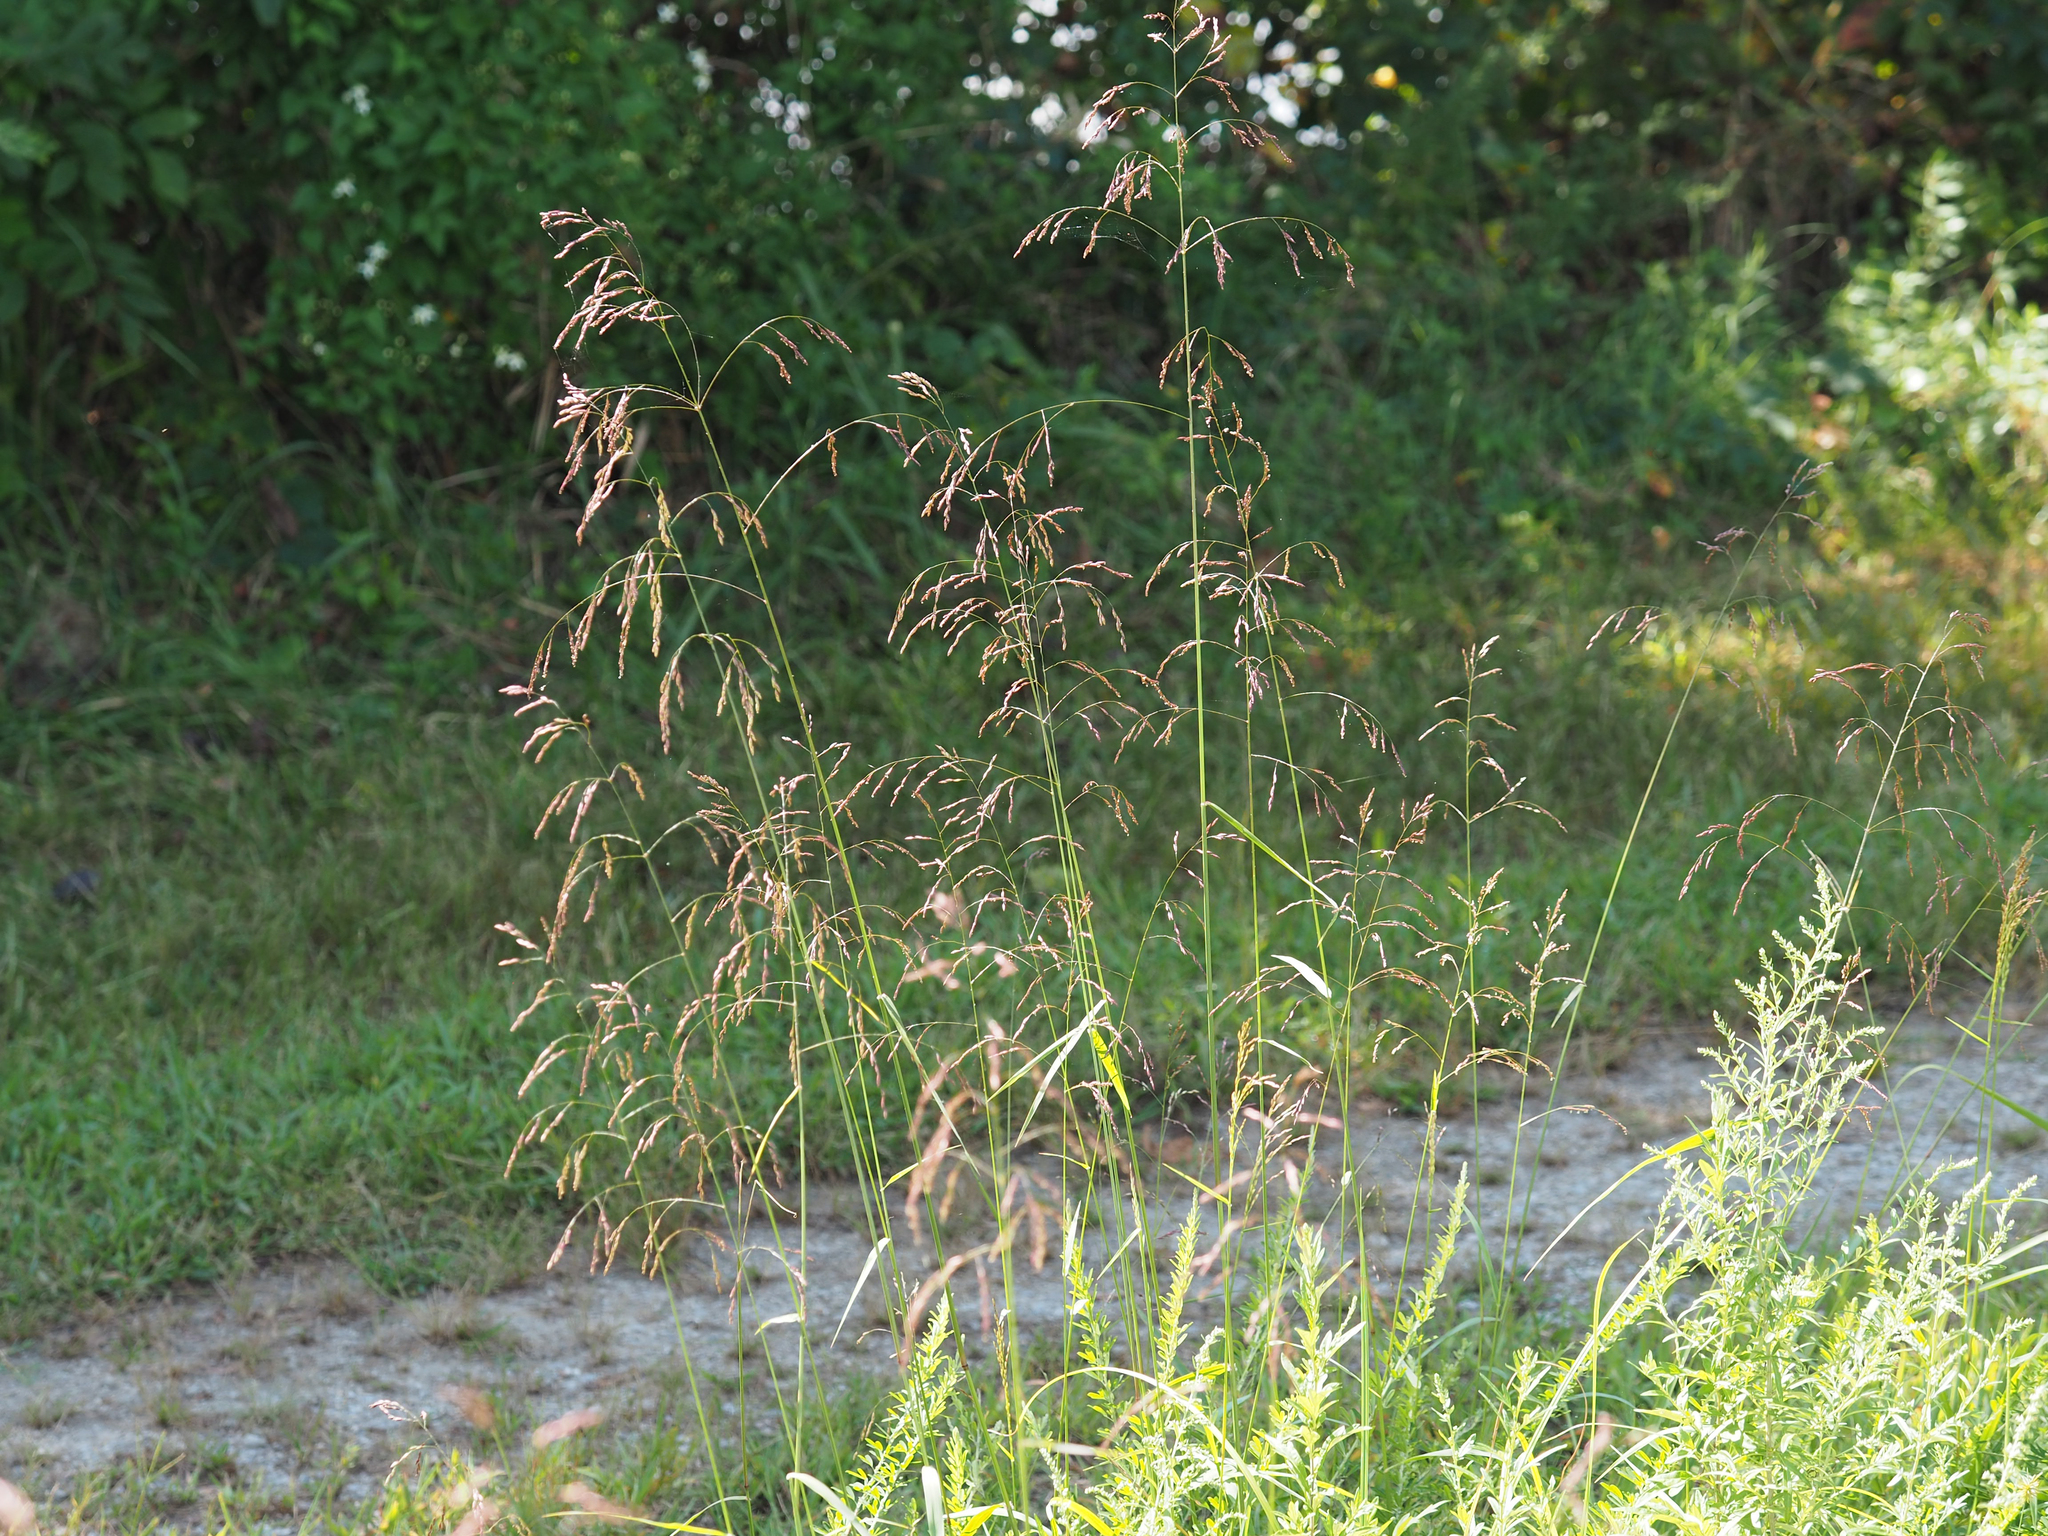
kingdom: Plantae
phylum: Tracheophyta
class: Liliopsida
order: Poales
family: Poaceae
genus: Tridens
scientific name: Tridens flavus
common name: Purpletop
